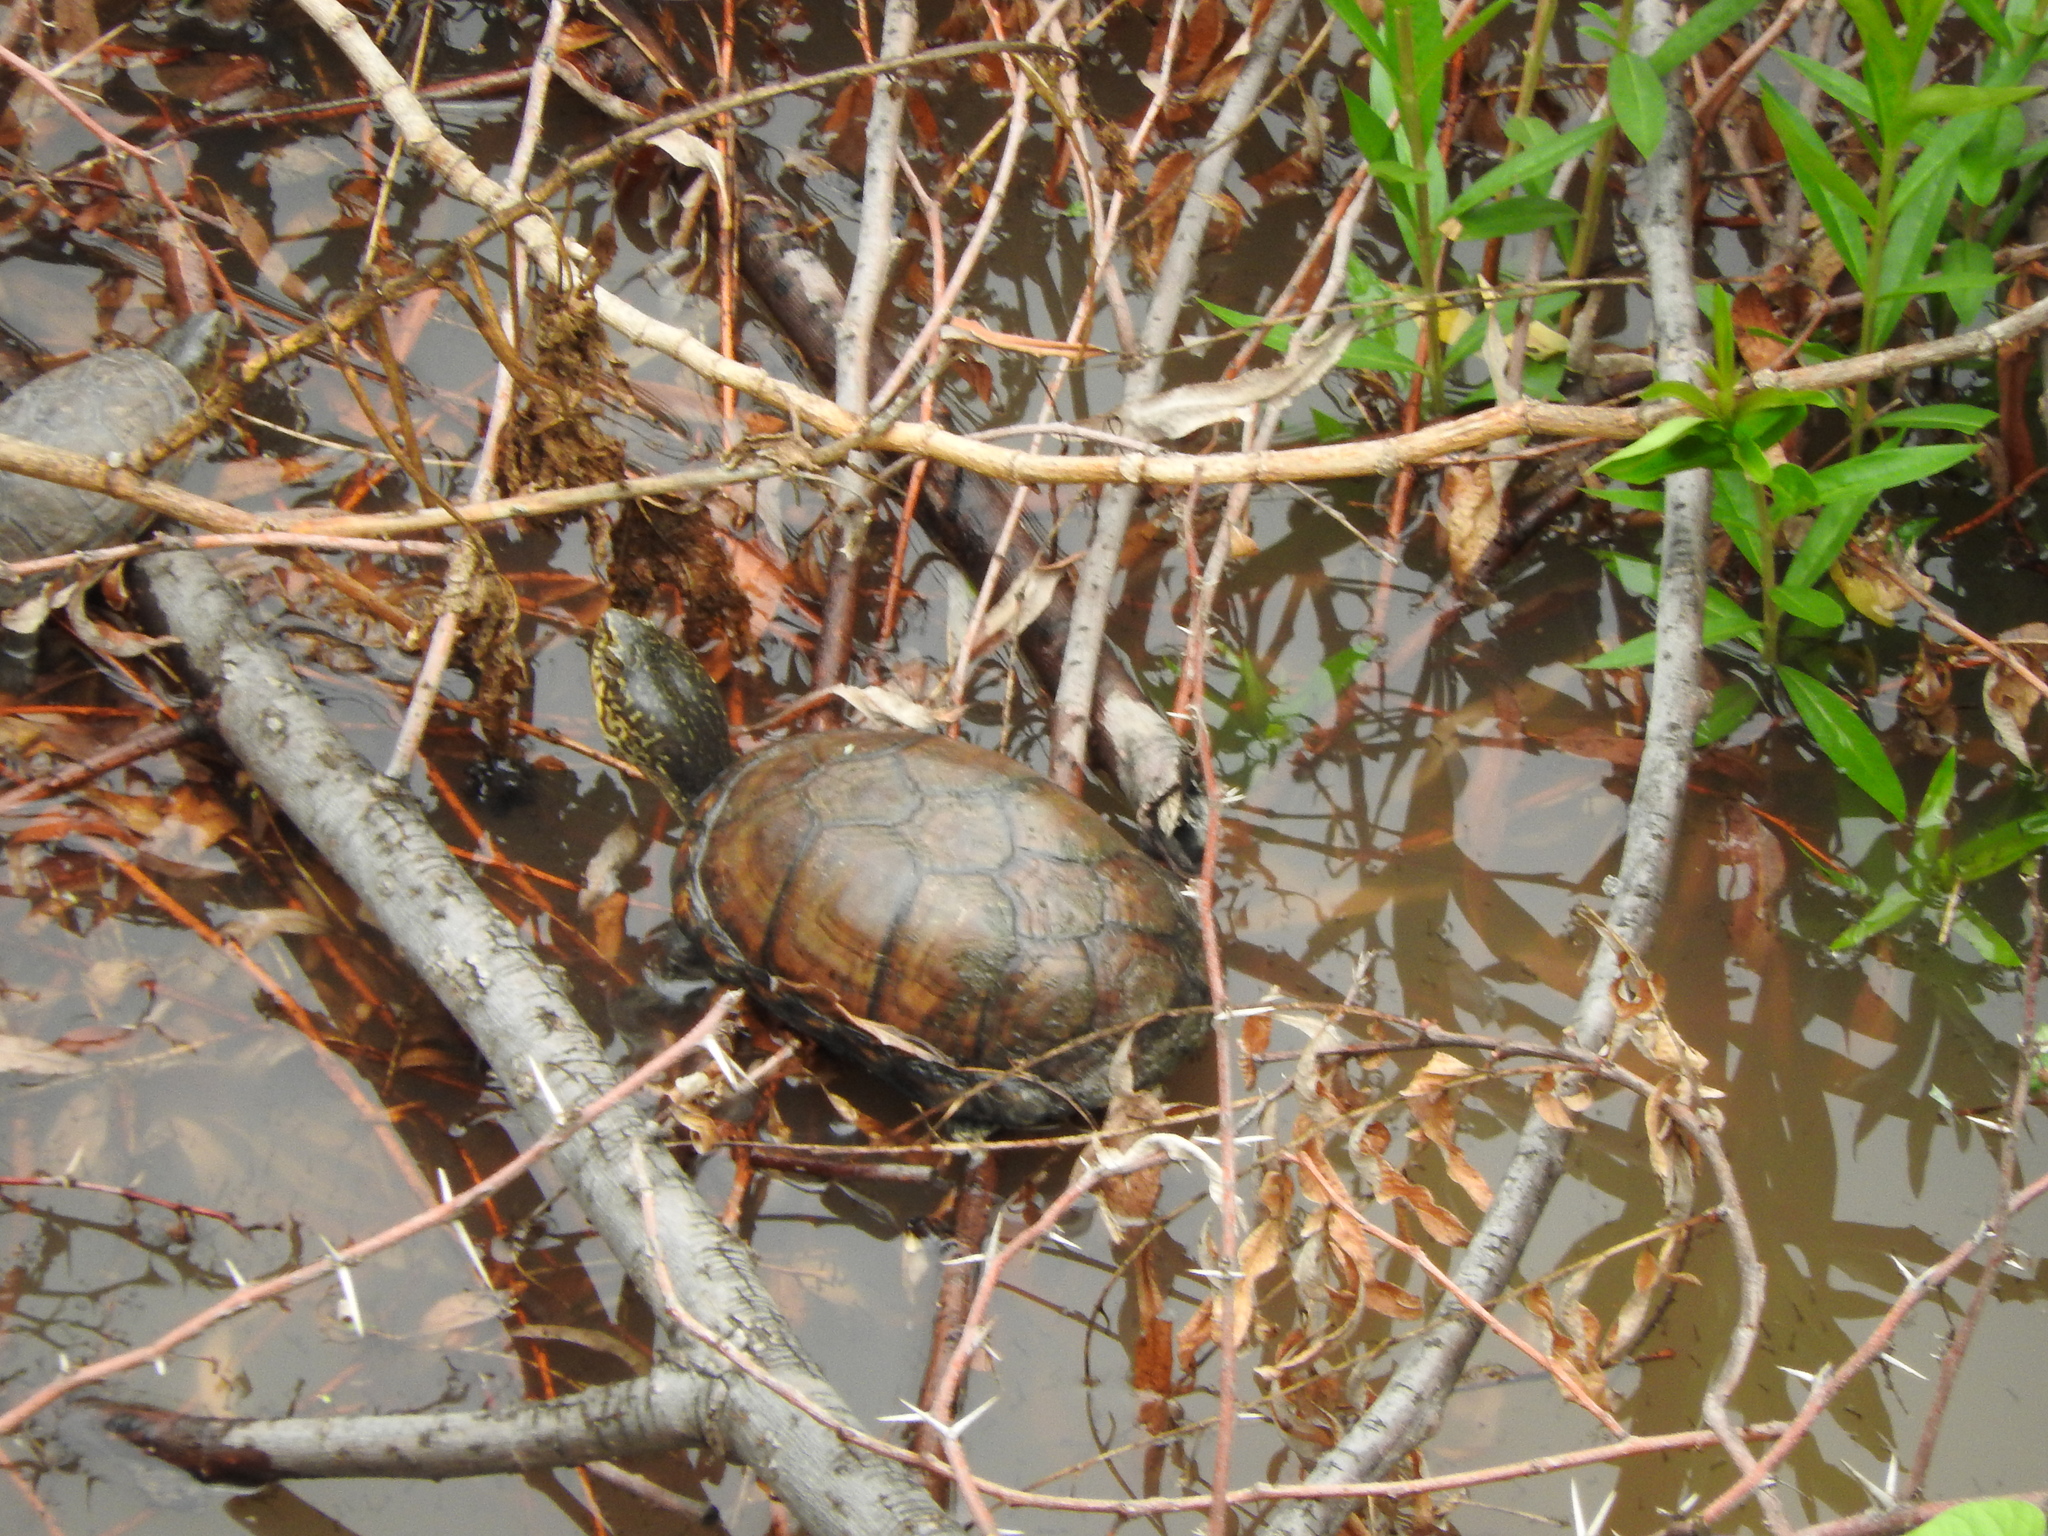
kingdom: Animalia
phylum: Chordata
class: Testudines
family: Kinosternidae
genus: Kinosternon
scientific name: Kinosternon integrum
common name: Mexican mud turtle
